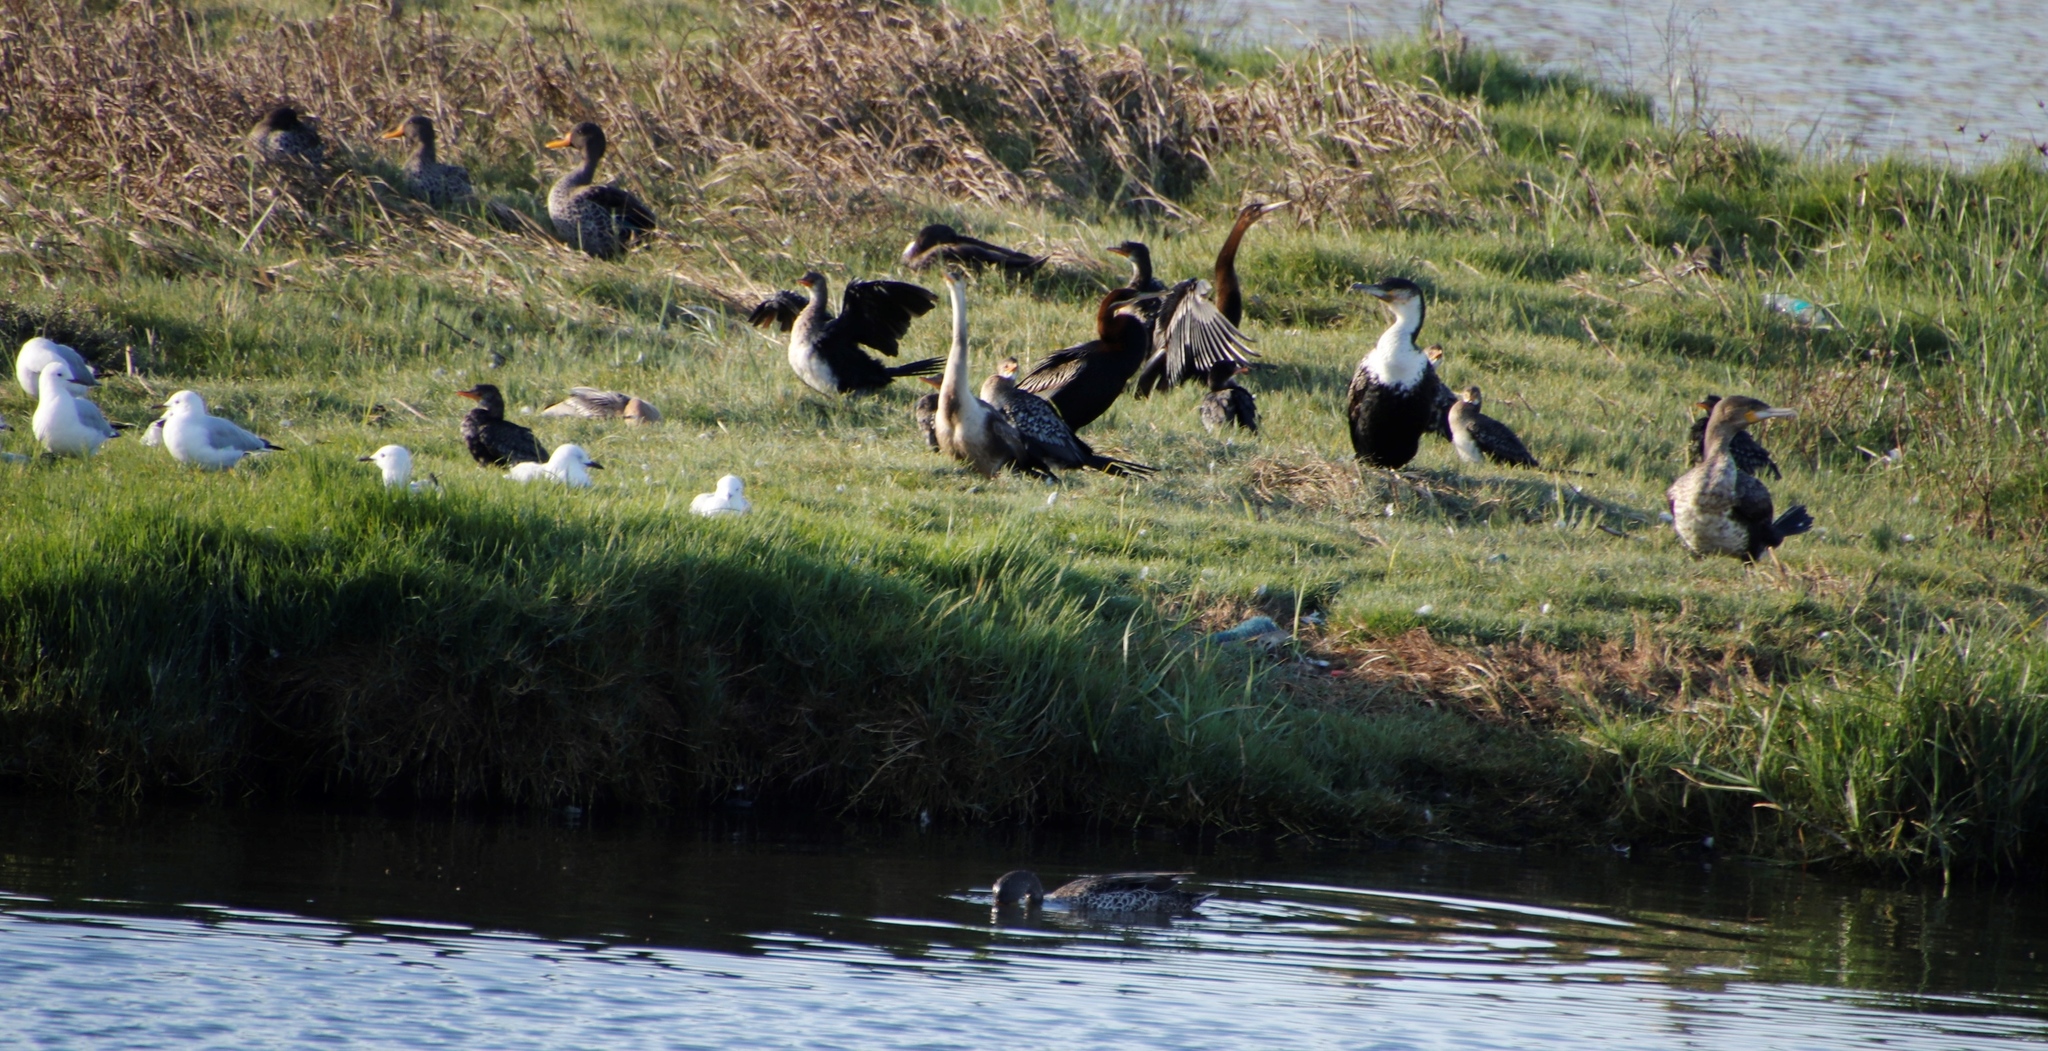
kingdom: Animalia
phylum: Chordata
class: Aves
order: Suliformes
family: Phalacrocoracidae
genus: Phalacrocorax
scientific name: Phalacrocorax carbo
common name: Great cormorant
